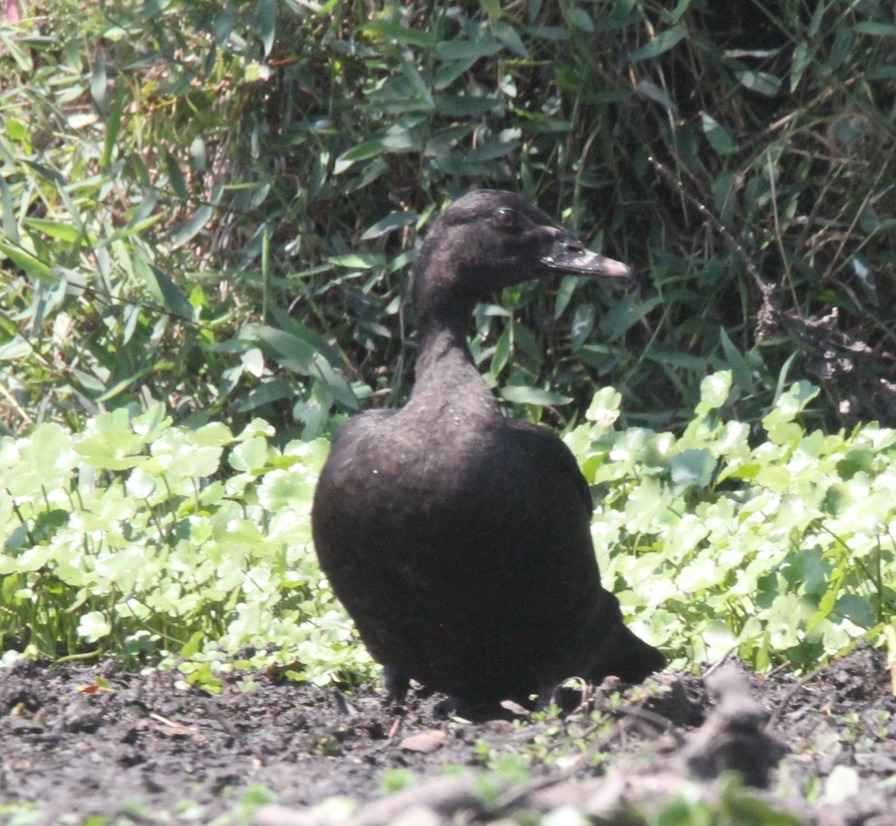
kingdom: Animalia
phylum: Chordata
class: Aves
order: Anseriformes
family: Anatidae
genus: Cairina
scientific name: Cairina moschata
